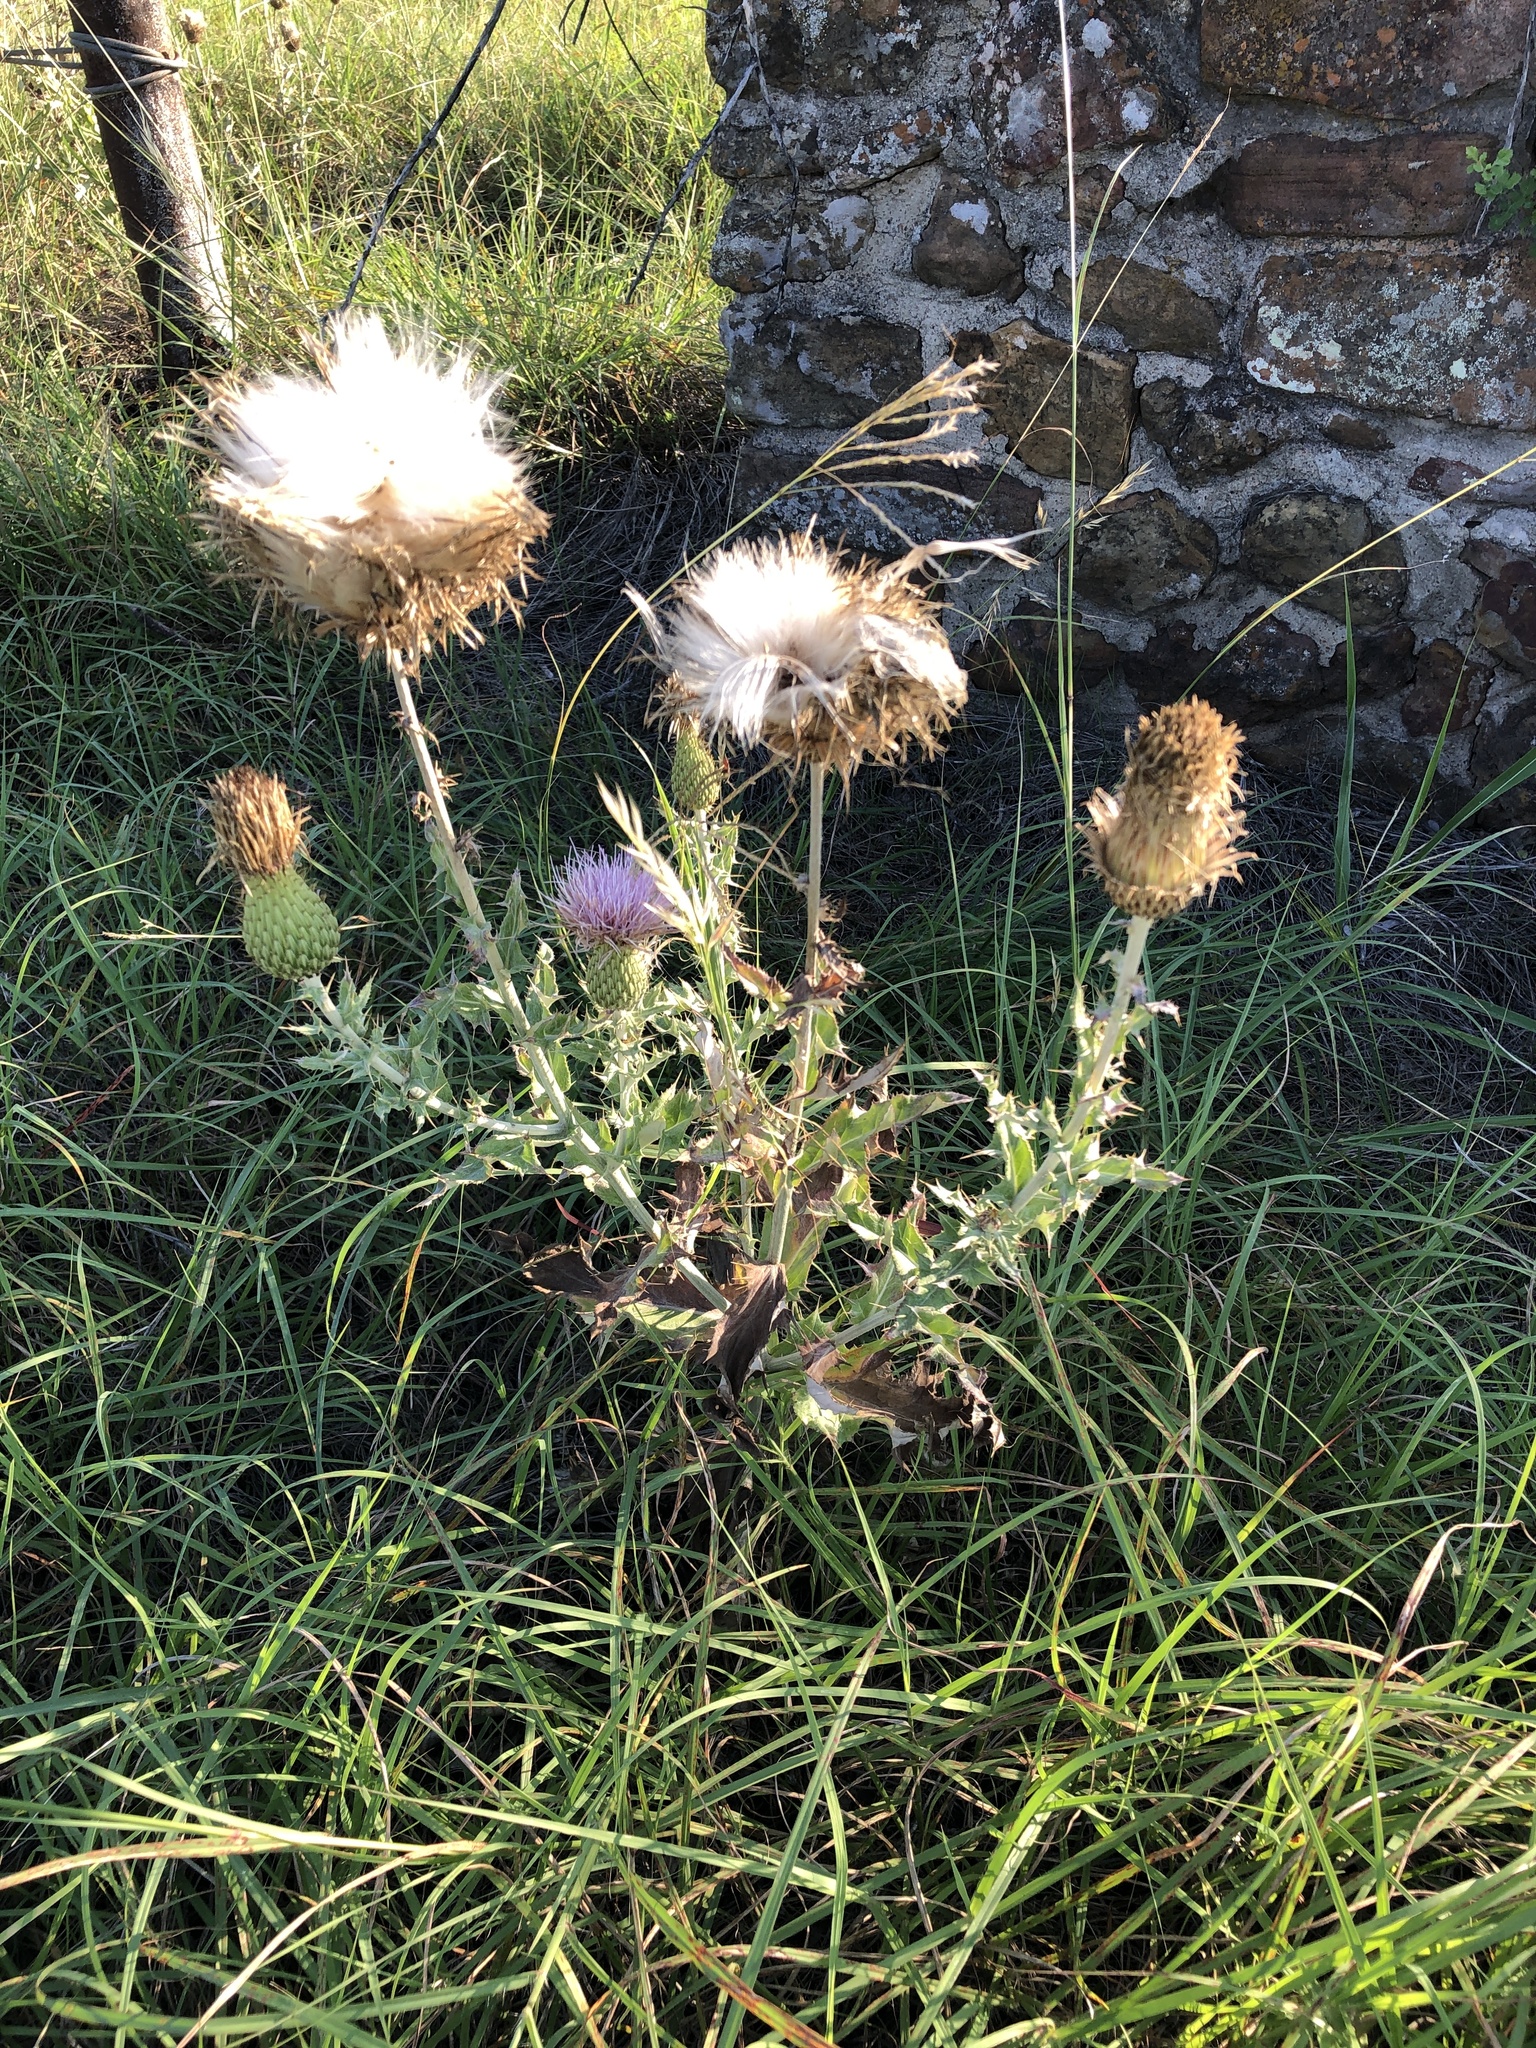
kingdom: Plantae
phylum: Tracheophyta
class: Magnoliopsida
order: Asterales
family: Asteraceae
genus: Cirsium
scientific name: Cirsium undulatum
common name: Pasture thistle
